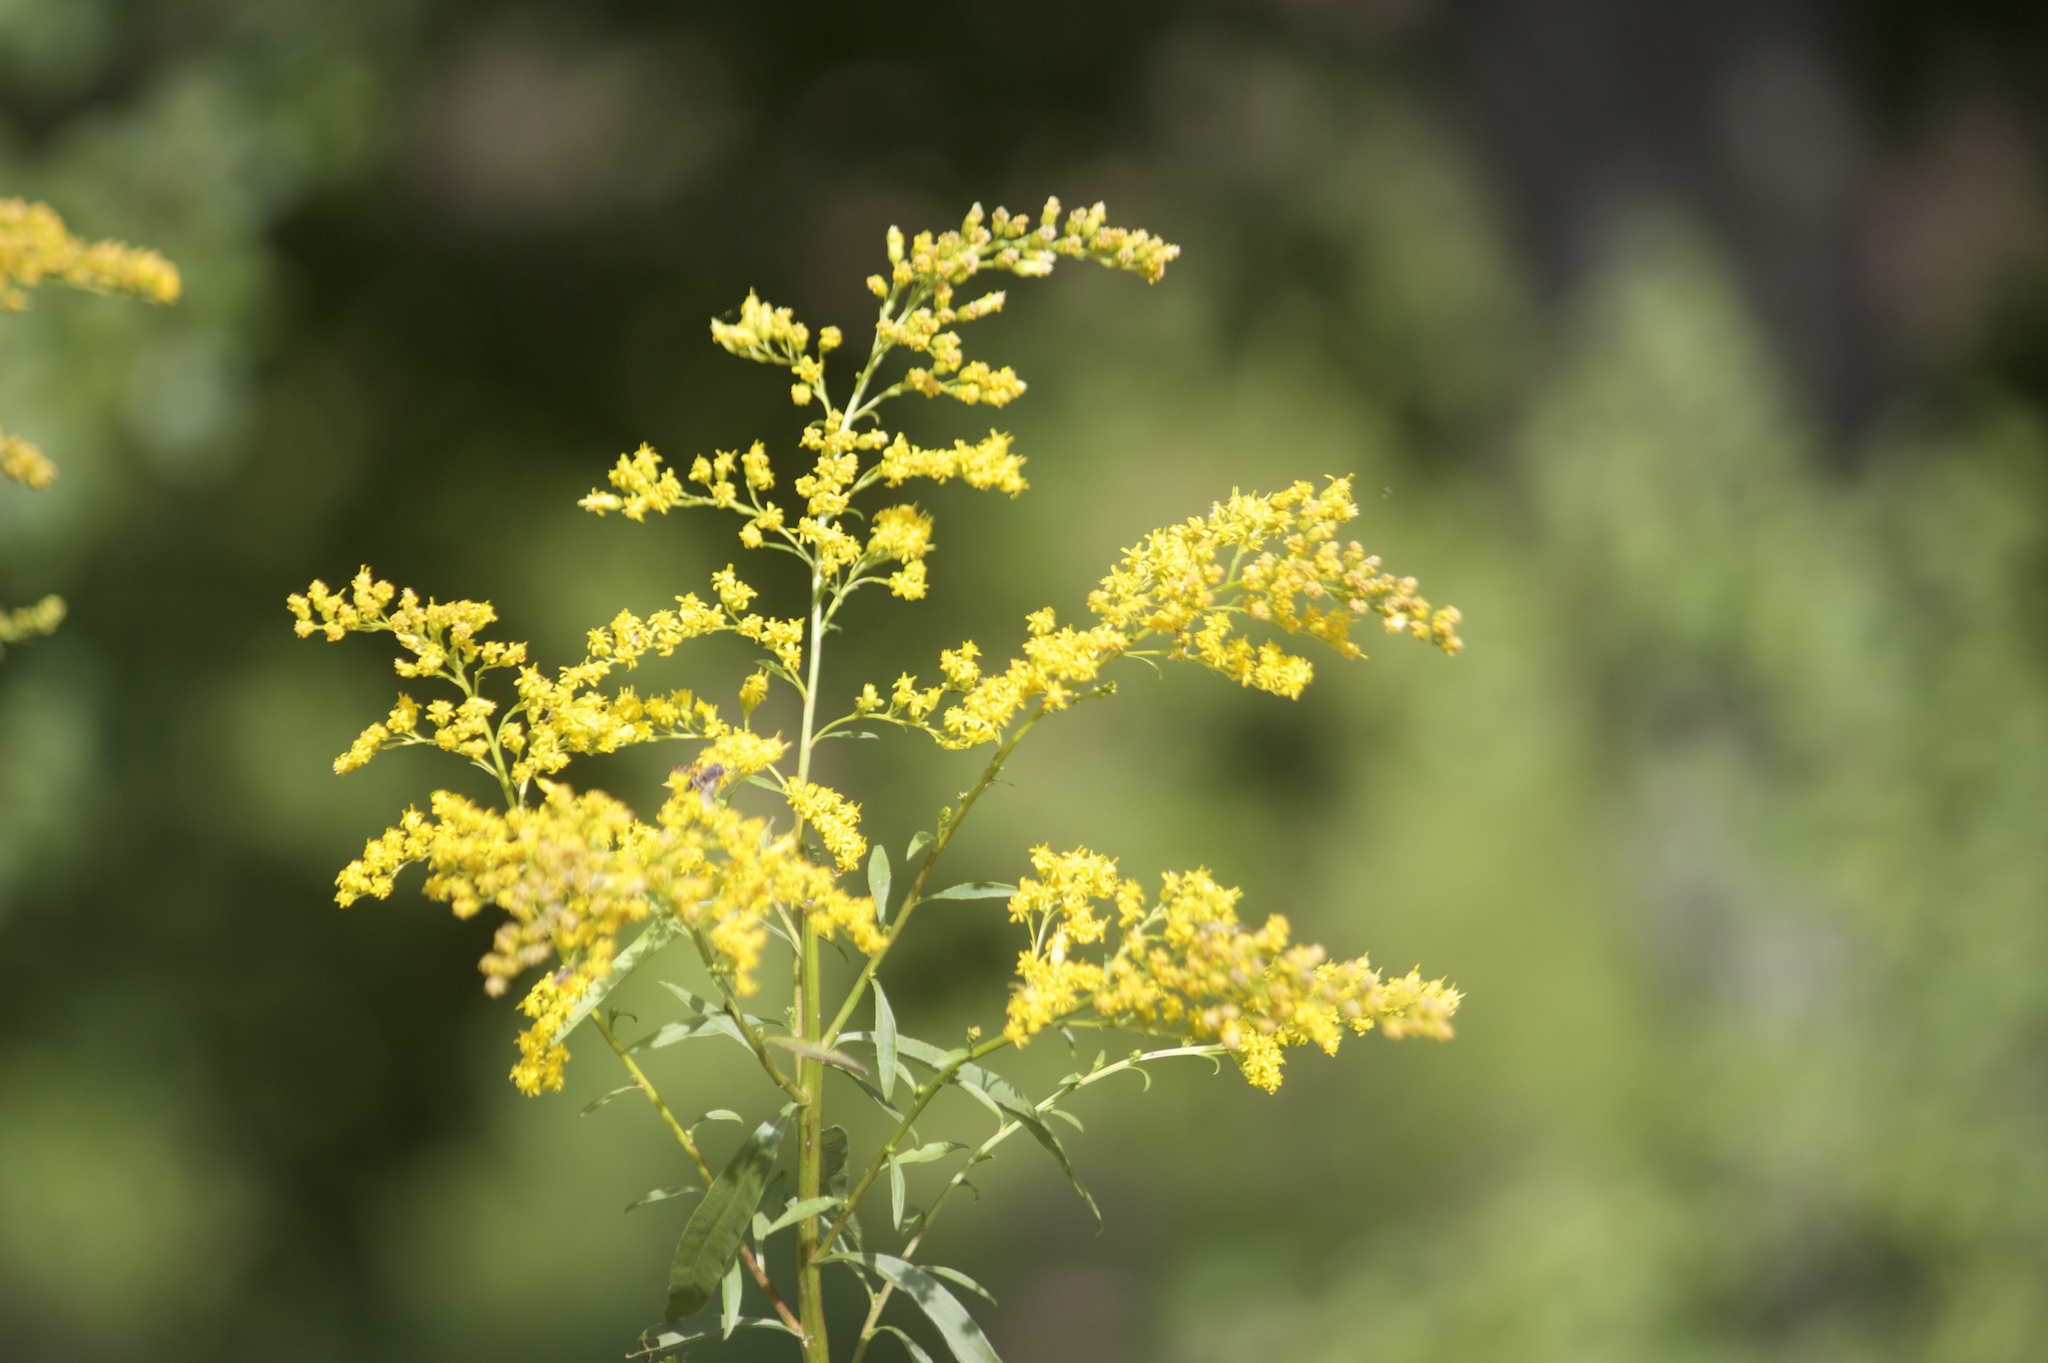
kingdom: Plantae
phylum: Tracheophyta
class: Magnoliopsida
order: Asterales
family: Asteraceae
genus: Solidago
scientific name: Solidago juncea
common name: Early goldenrod
